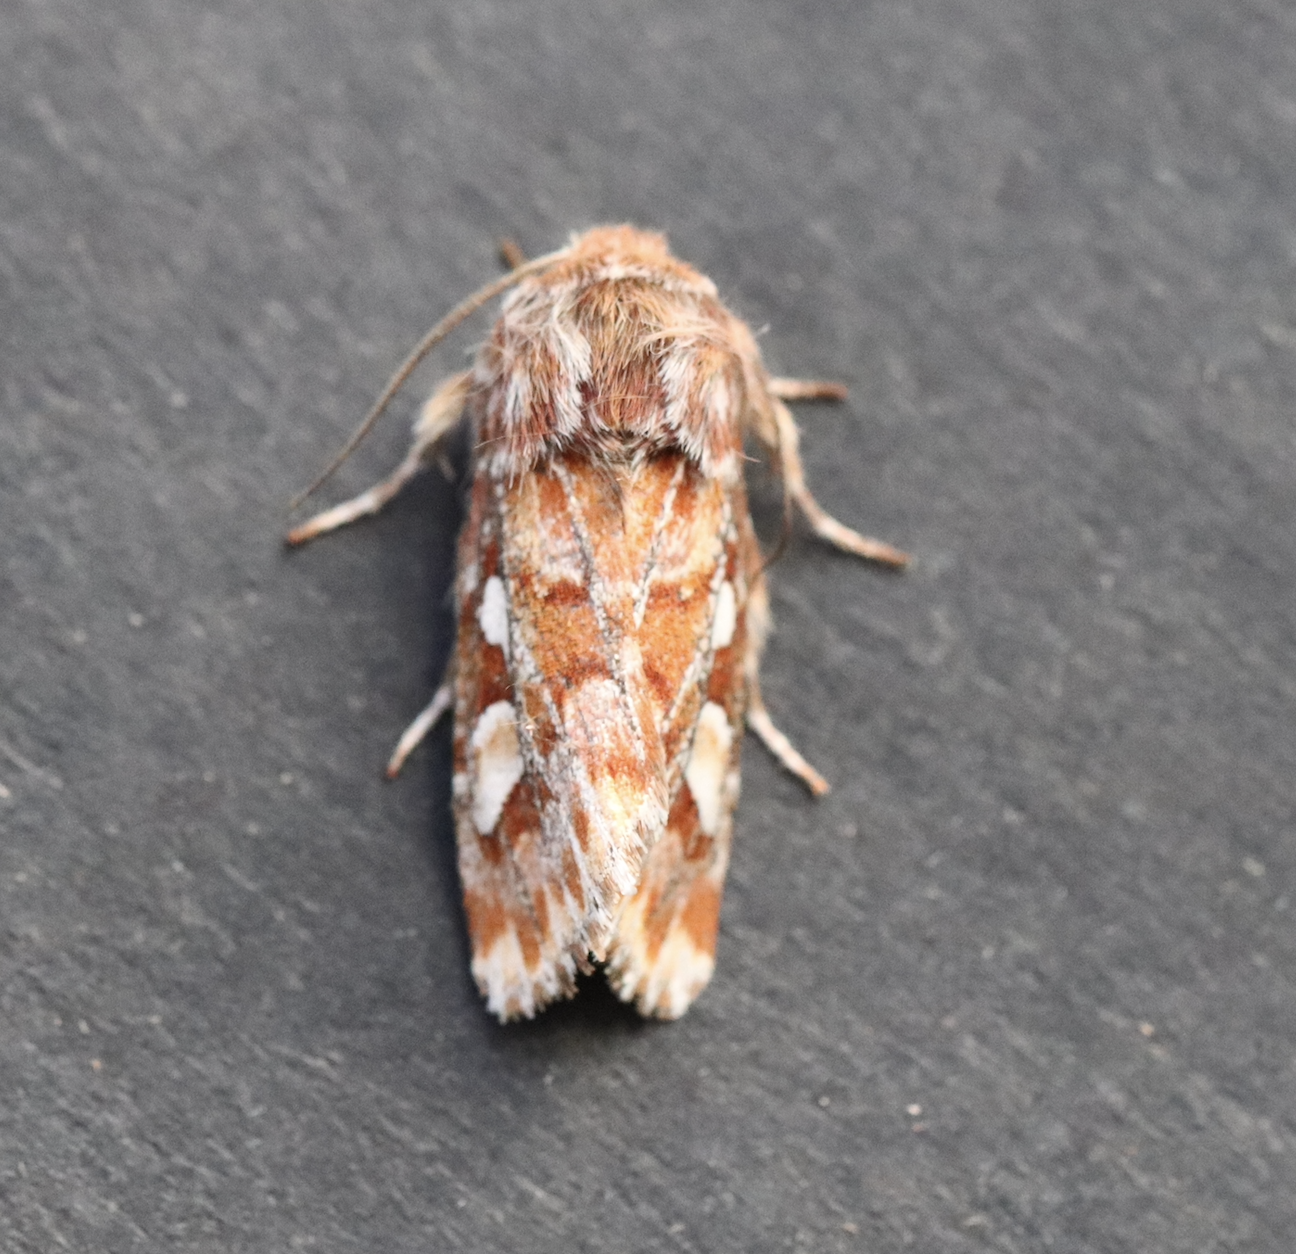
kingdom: Animalia
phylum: Arthropoda
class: Insecta
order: Lepidoptera
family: Noctuidae
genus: Panolis
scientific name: Panolis flammea
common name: Pine beauty
